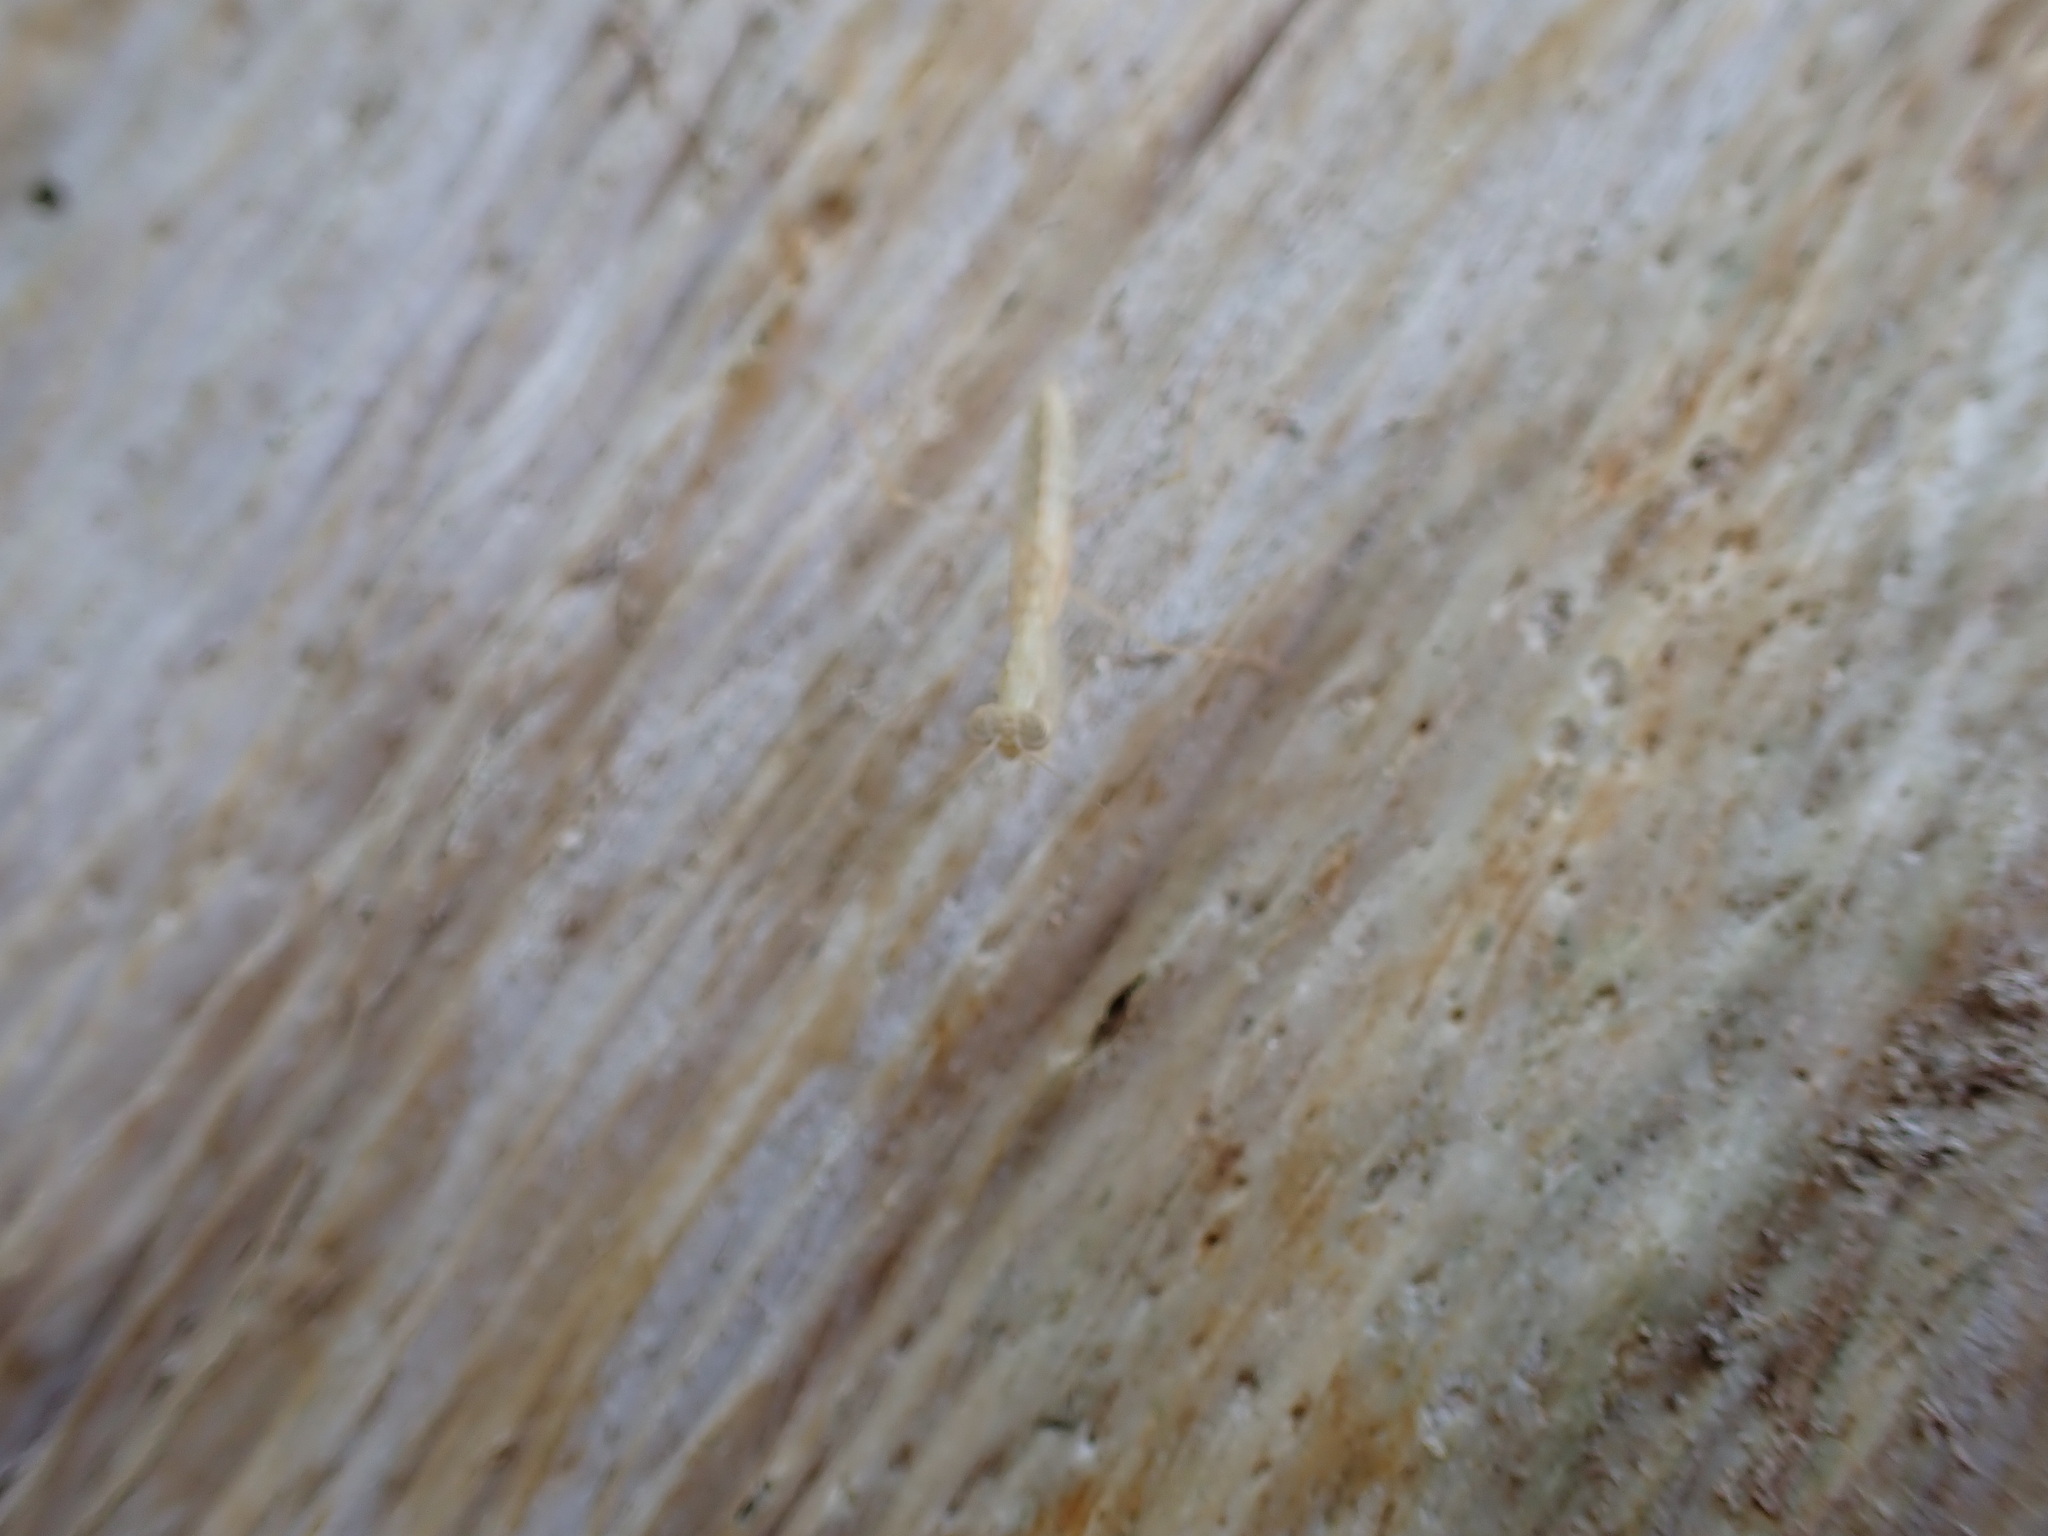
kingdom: Animalia
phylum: Arthropoda
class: Insecta
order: Mantodea
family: Nanomantidae
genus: Ima
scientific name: Ima fusca
